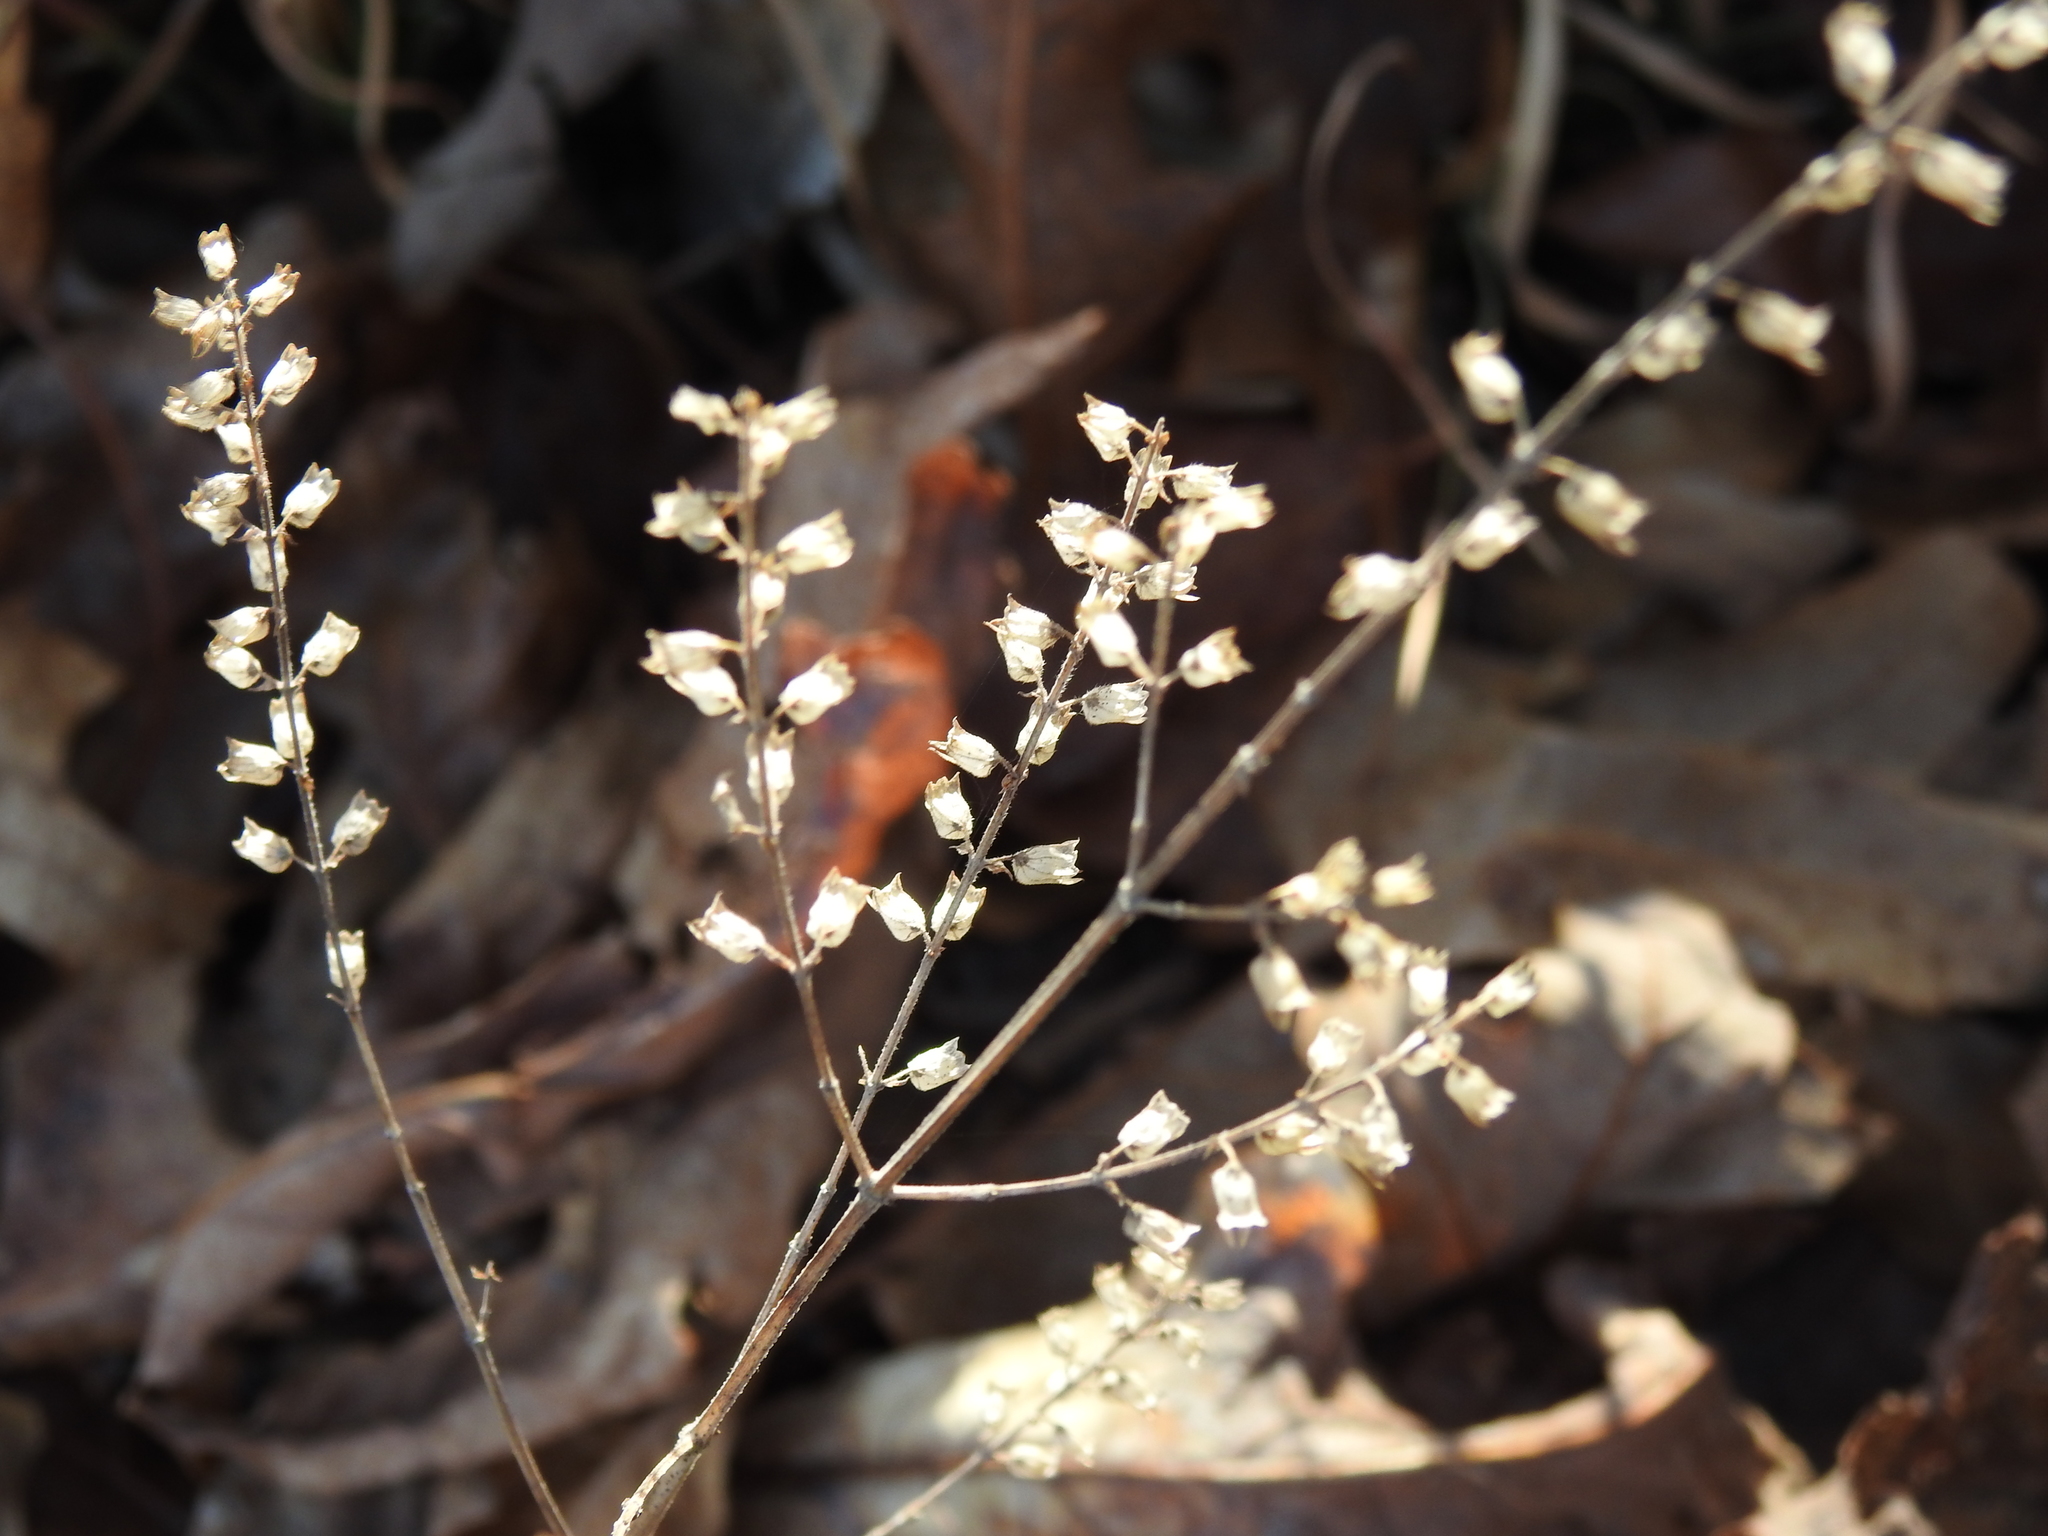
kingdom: Plantae
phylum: Tracheophyta
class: Magnoliopsida
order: Lamiales
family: Lamiaceae
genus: Perilla
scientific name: Perilla frutescens
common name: Perilla
